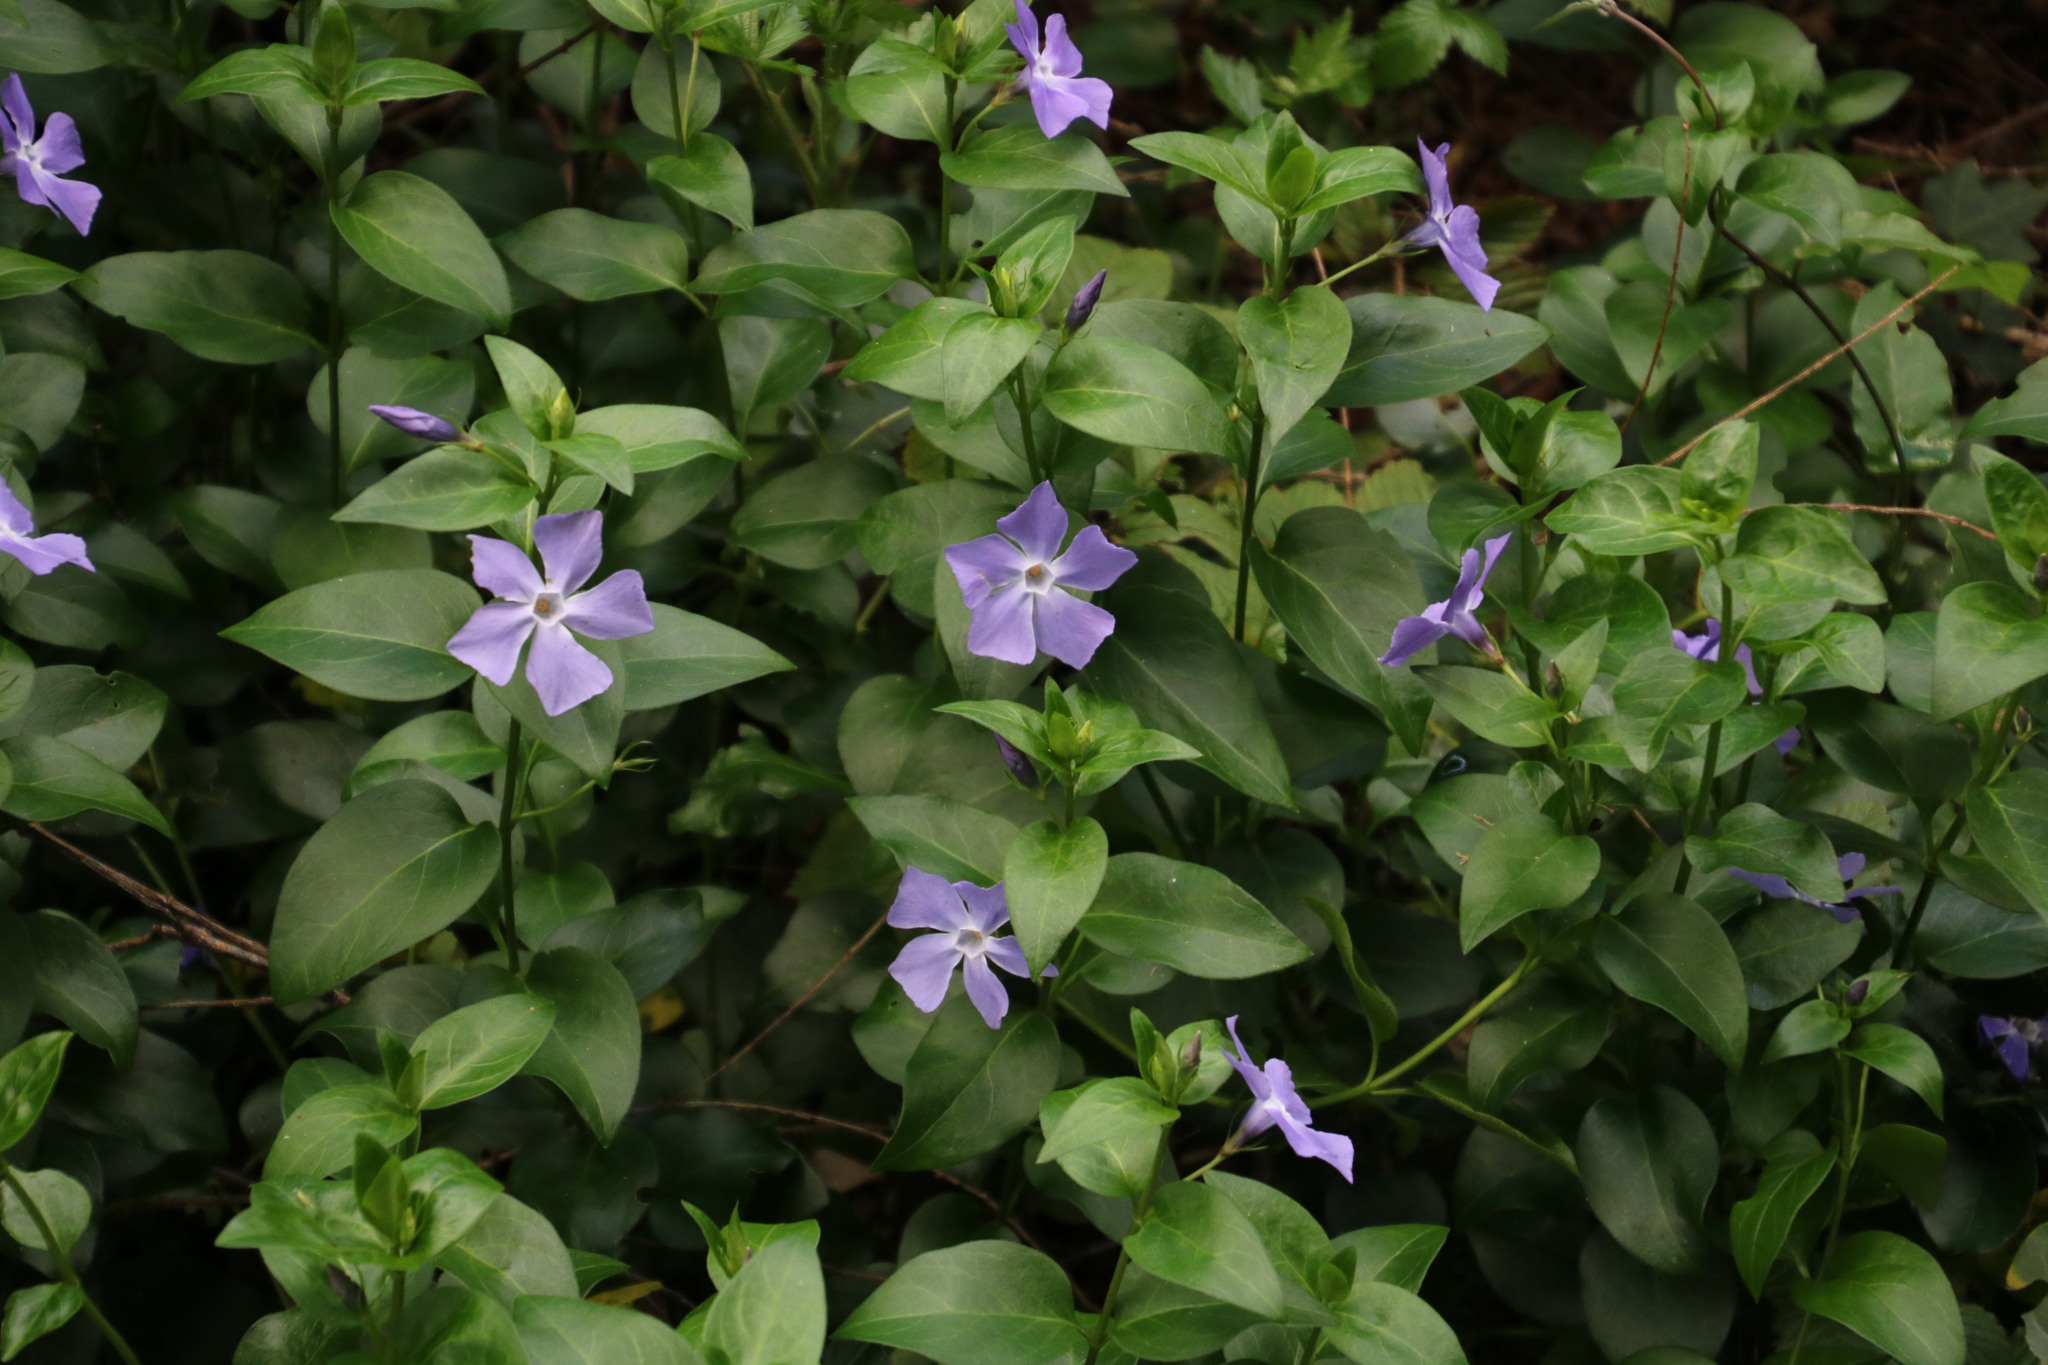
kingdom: Plantae
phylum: Tracheophyta
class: Magnoliopsida
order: Gentianales
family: Apocynaceae
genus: Vinca
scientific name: Vinca major
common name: Greater periwinkle
